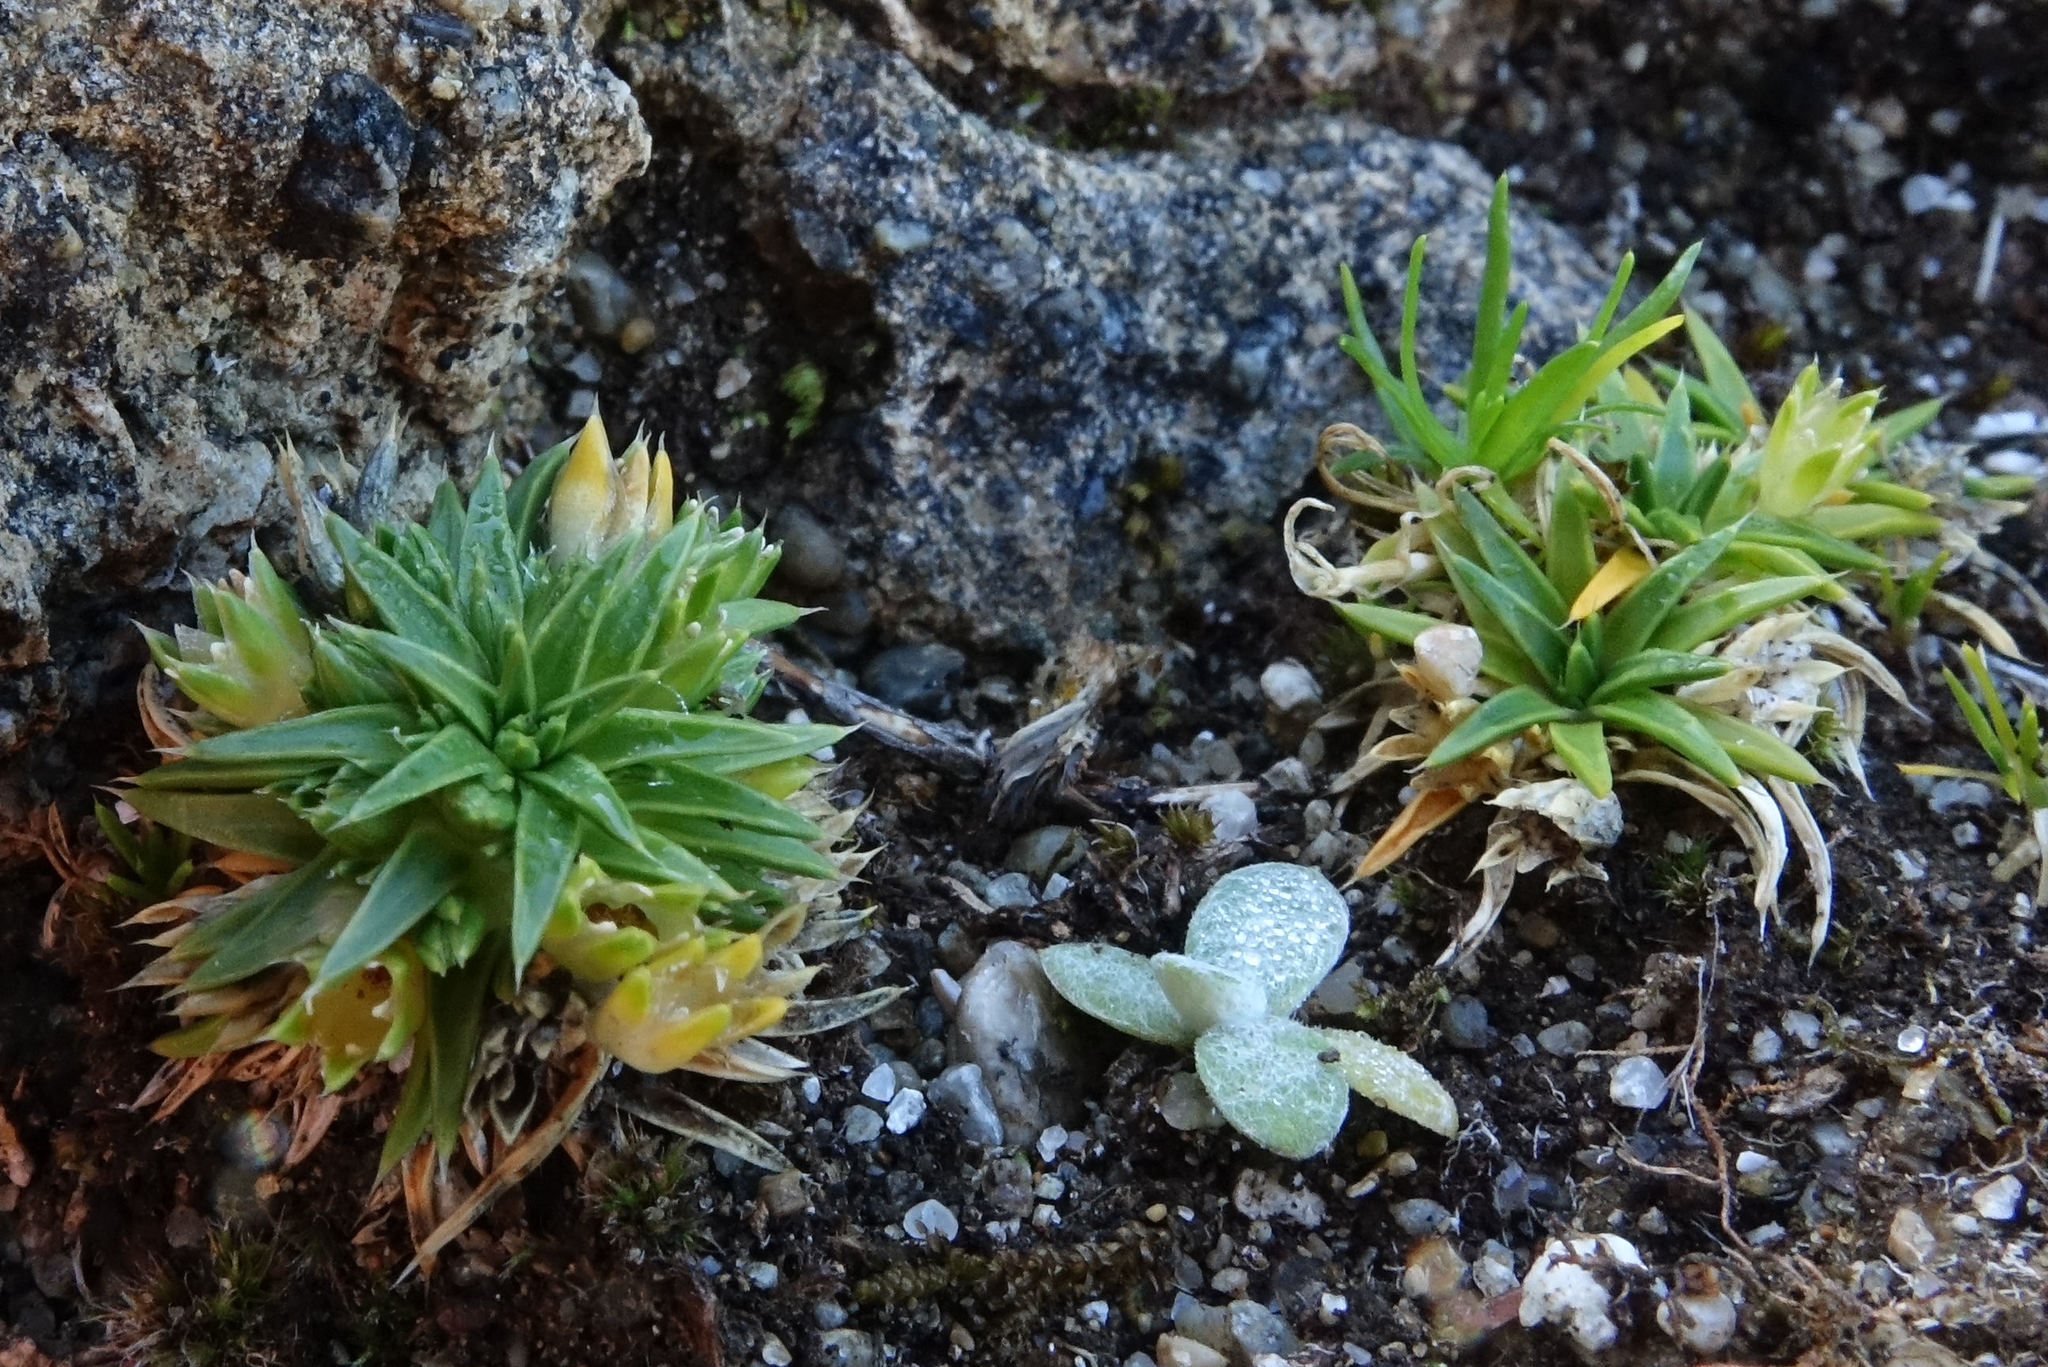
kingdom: Plantae
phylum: Tracheophyta
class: Magnoliopsida
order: Caryophyllales
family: Caryophyllaceae
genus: Colobanthus
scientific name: Colobanthus muelleri
